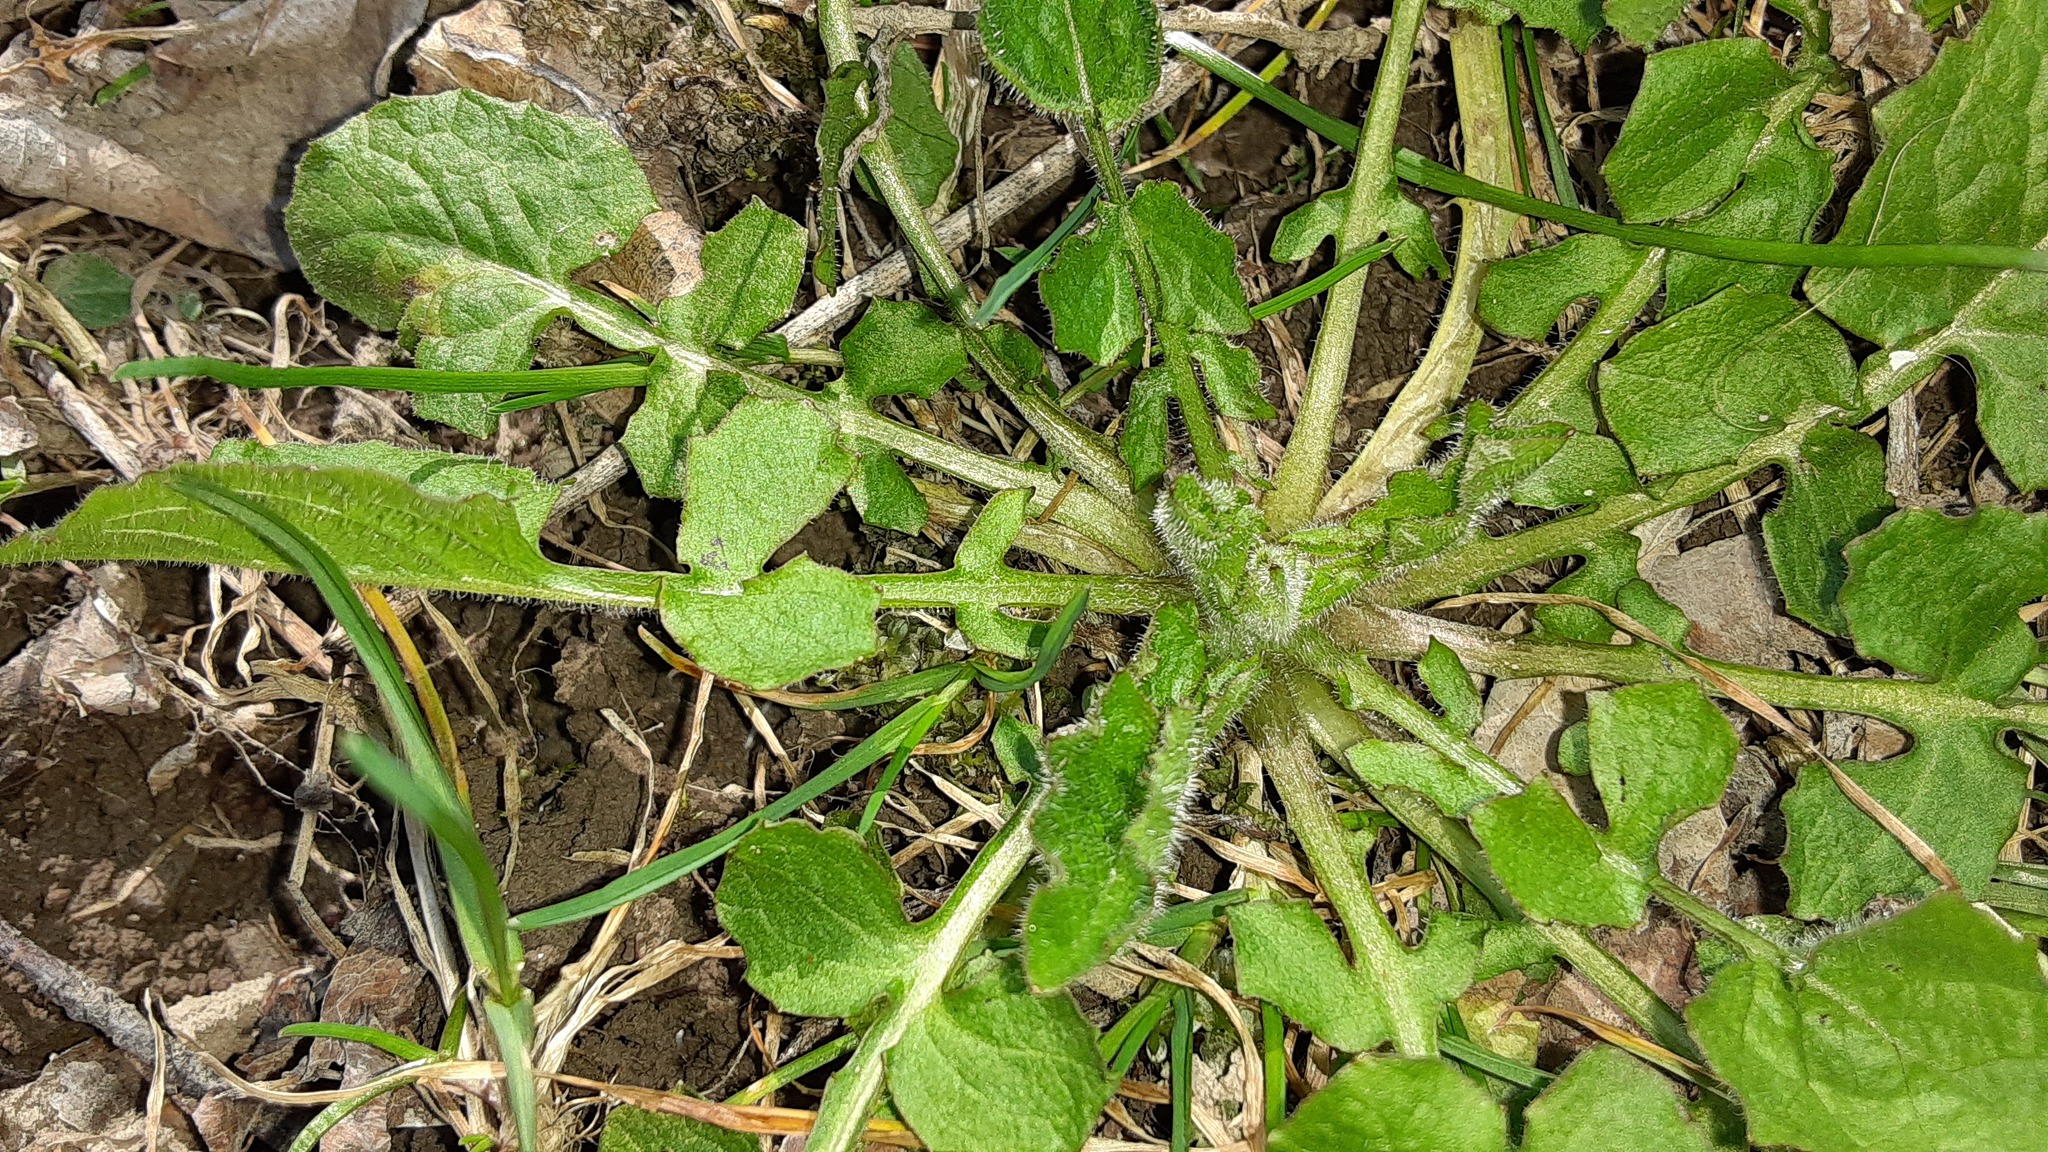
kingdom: Plantae
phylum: Tracheophyta
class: Magnoliopsida
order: Asterales
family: Asteraceae
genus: Lapsana
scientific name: Lapsana communis
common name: Nipplewort
